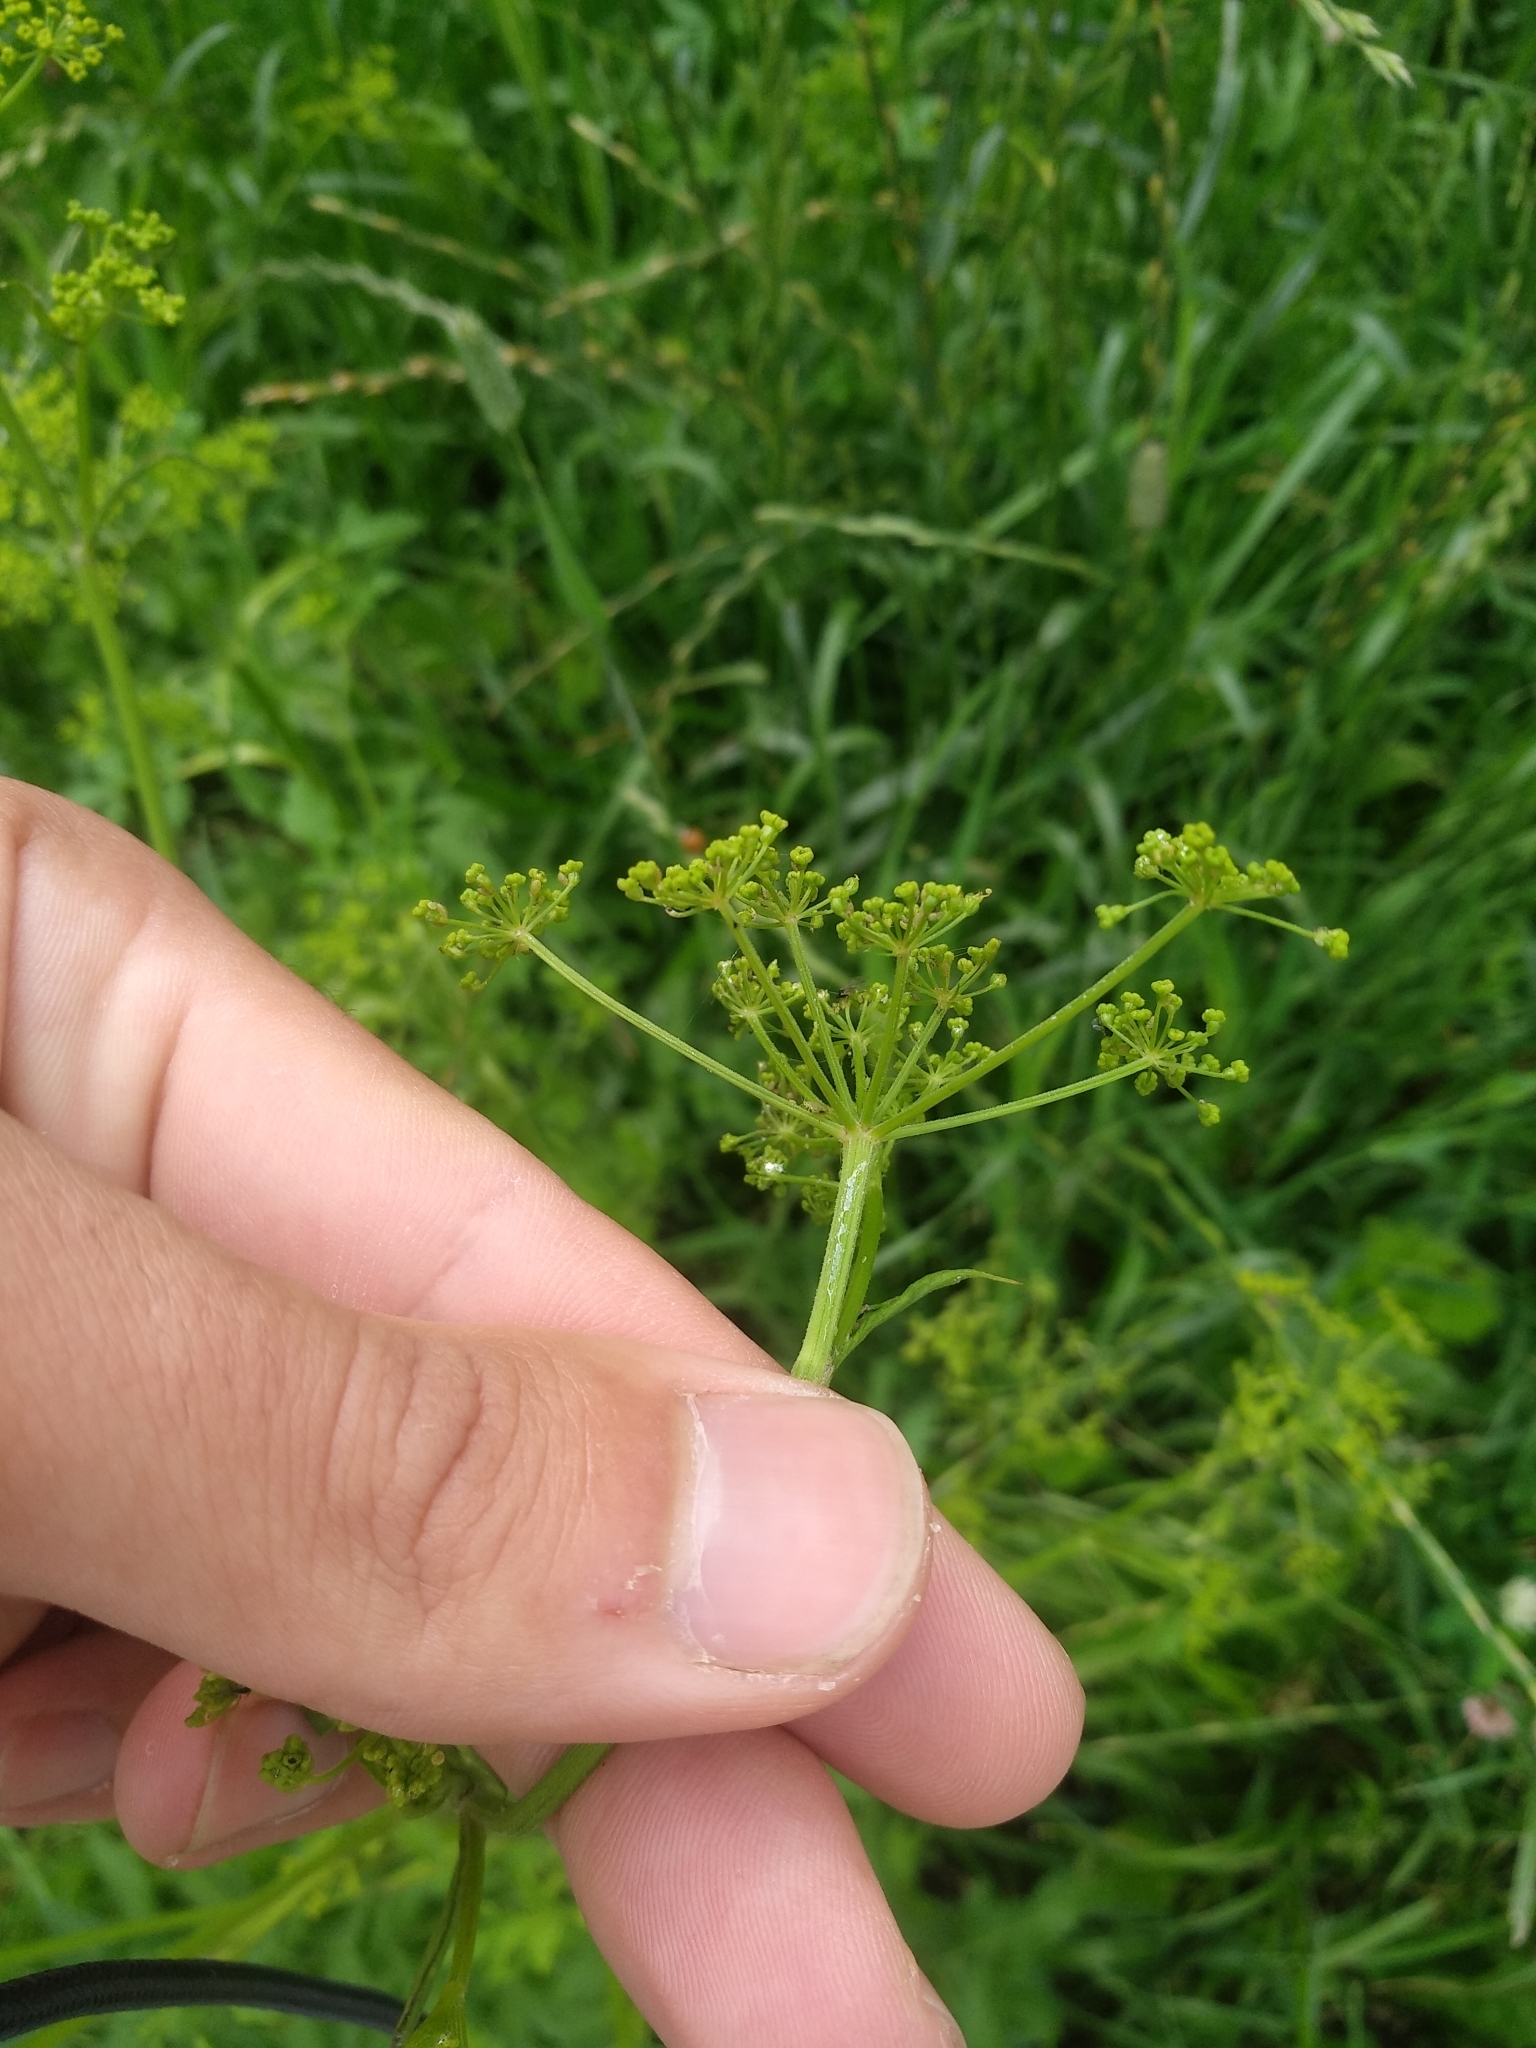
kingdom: Plantae
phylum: Tracheophyta
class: Magnoliopsida
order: Apiales
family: Apiaceae
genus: Pastinaca
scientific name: Pastinaca sativa
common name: Wild parsnip
